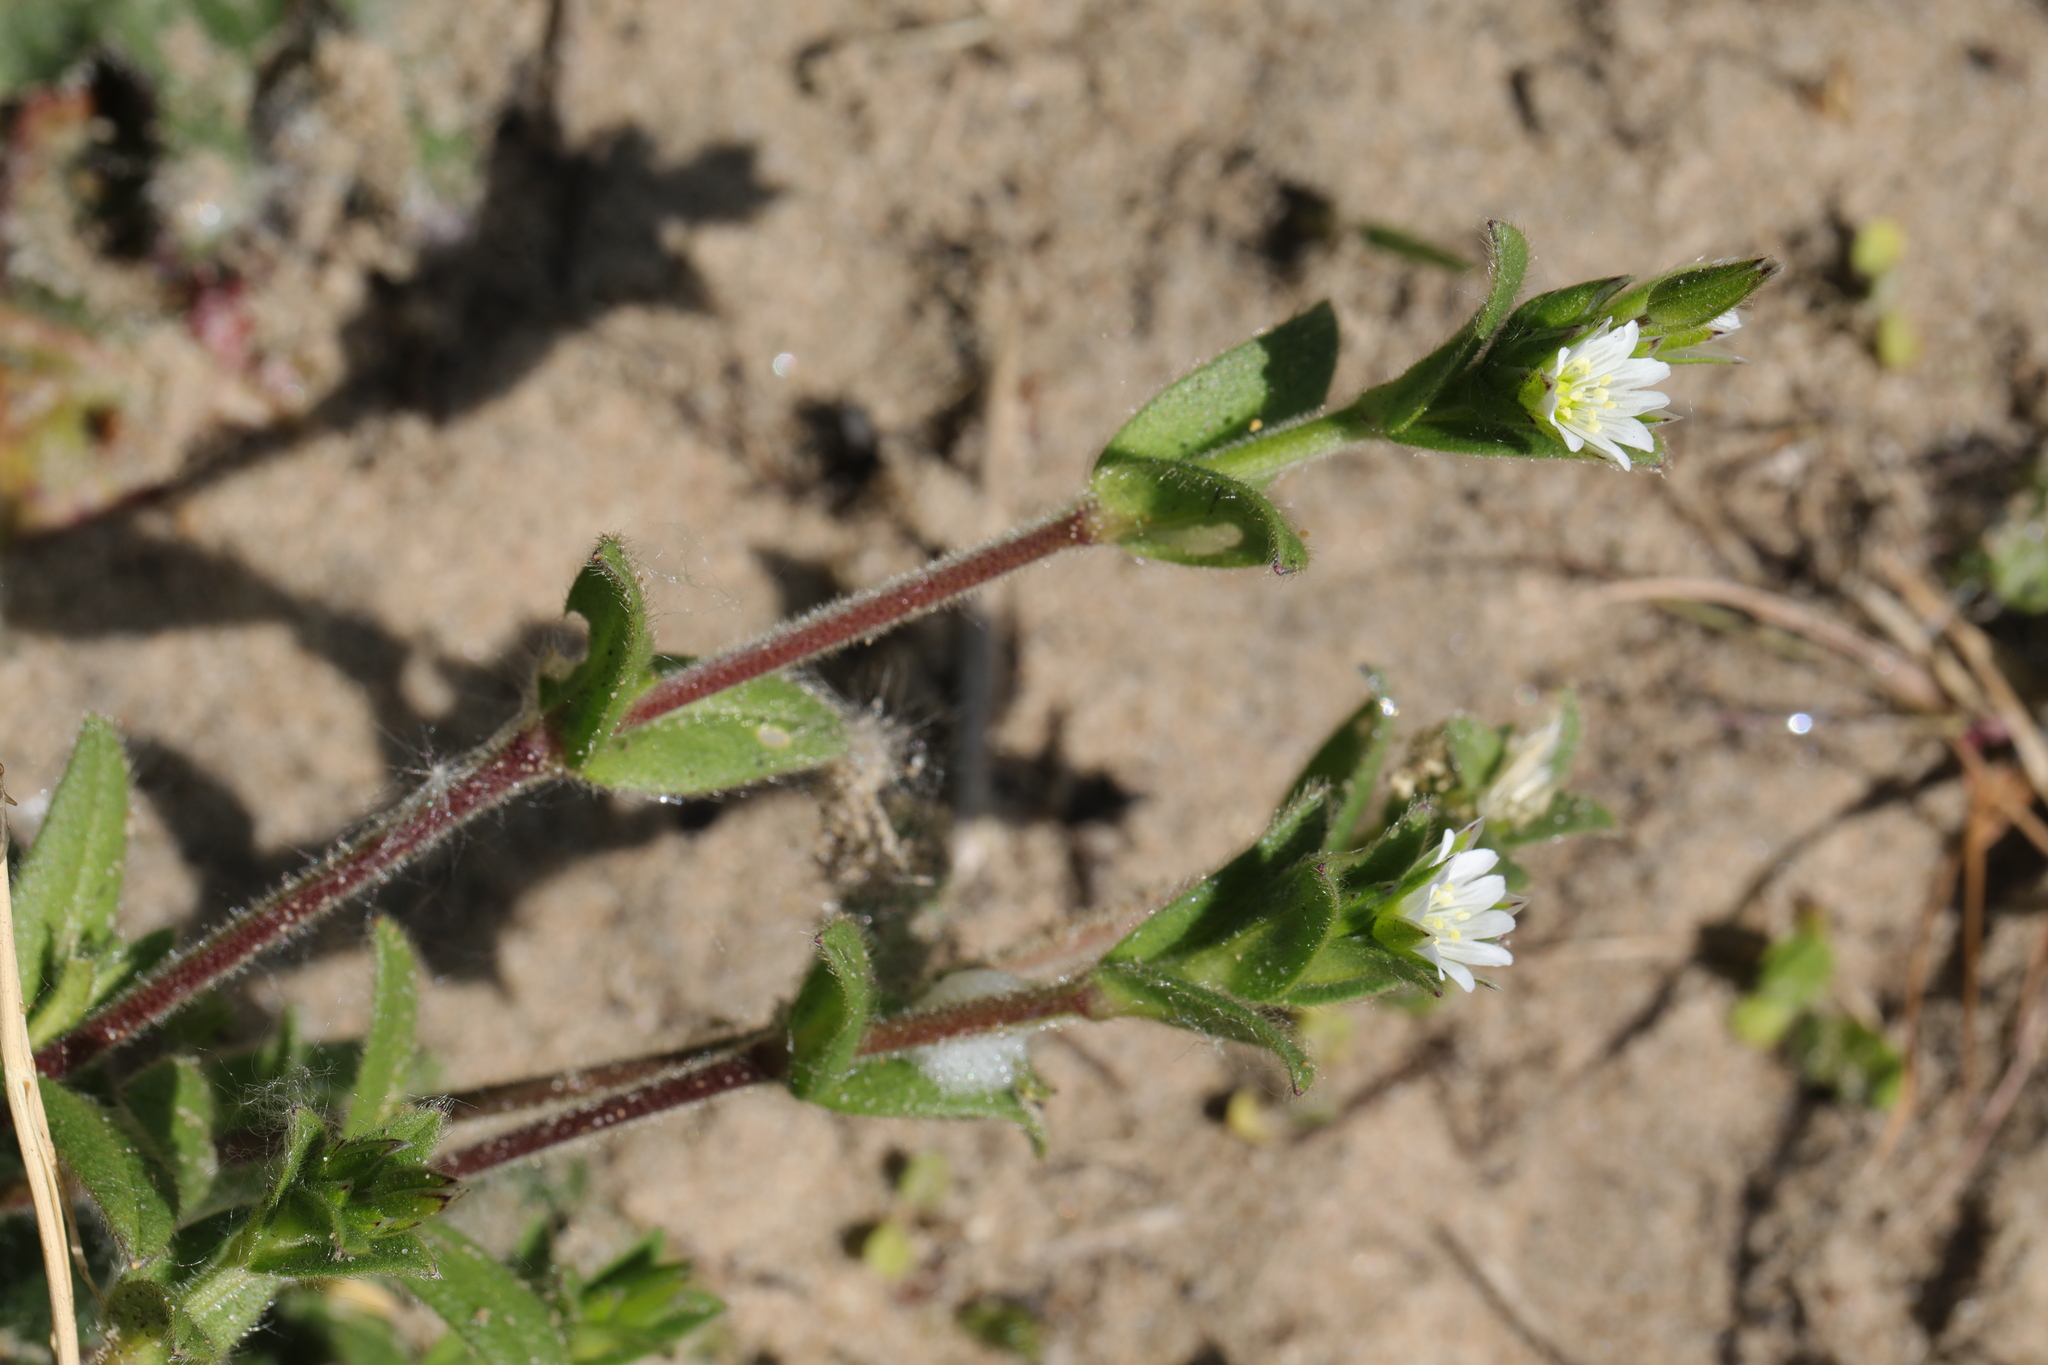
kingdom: Plantae
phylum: Tracheophyta
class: Magnoliopsida
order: Caryophyllales
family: Caryophyllaceae
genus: Cerastium
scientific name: Cerastium fontanum
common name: Common mouse-ear
